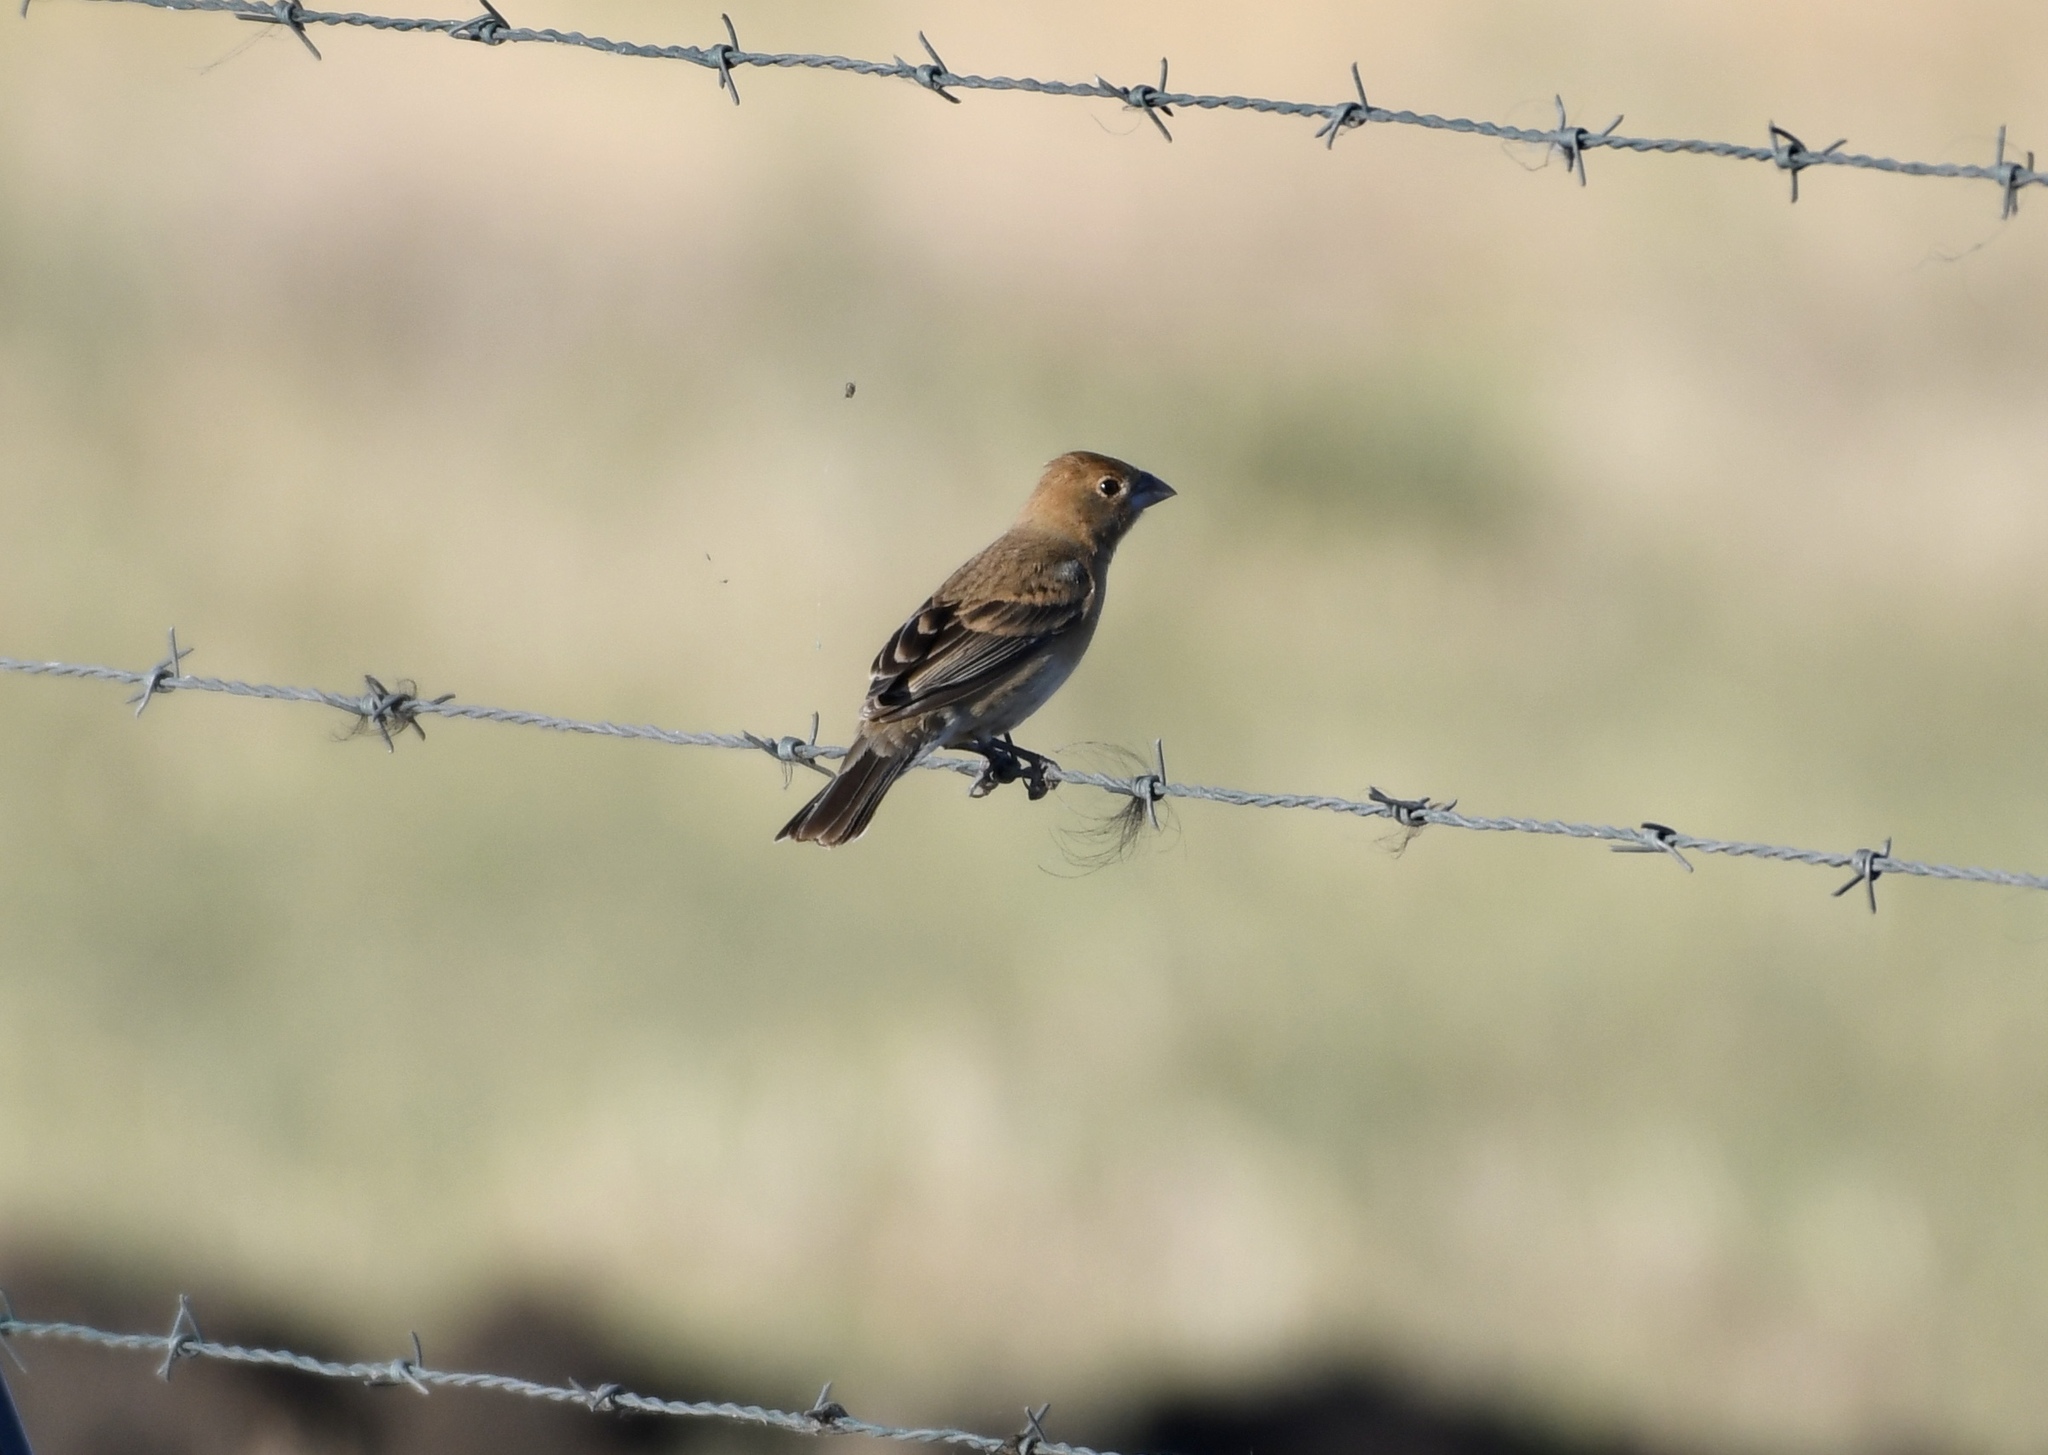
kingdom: Animalia
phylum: Chordata
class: Aves
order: Passeriformes
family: Cardinalidae
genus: Passerina
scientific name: Passerina caerulea
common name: Blue grosbeak
